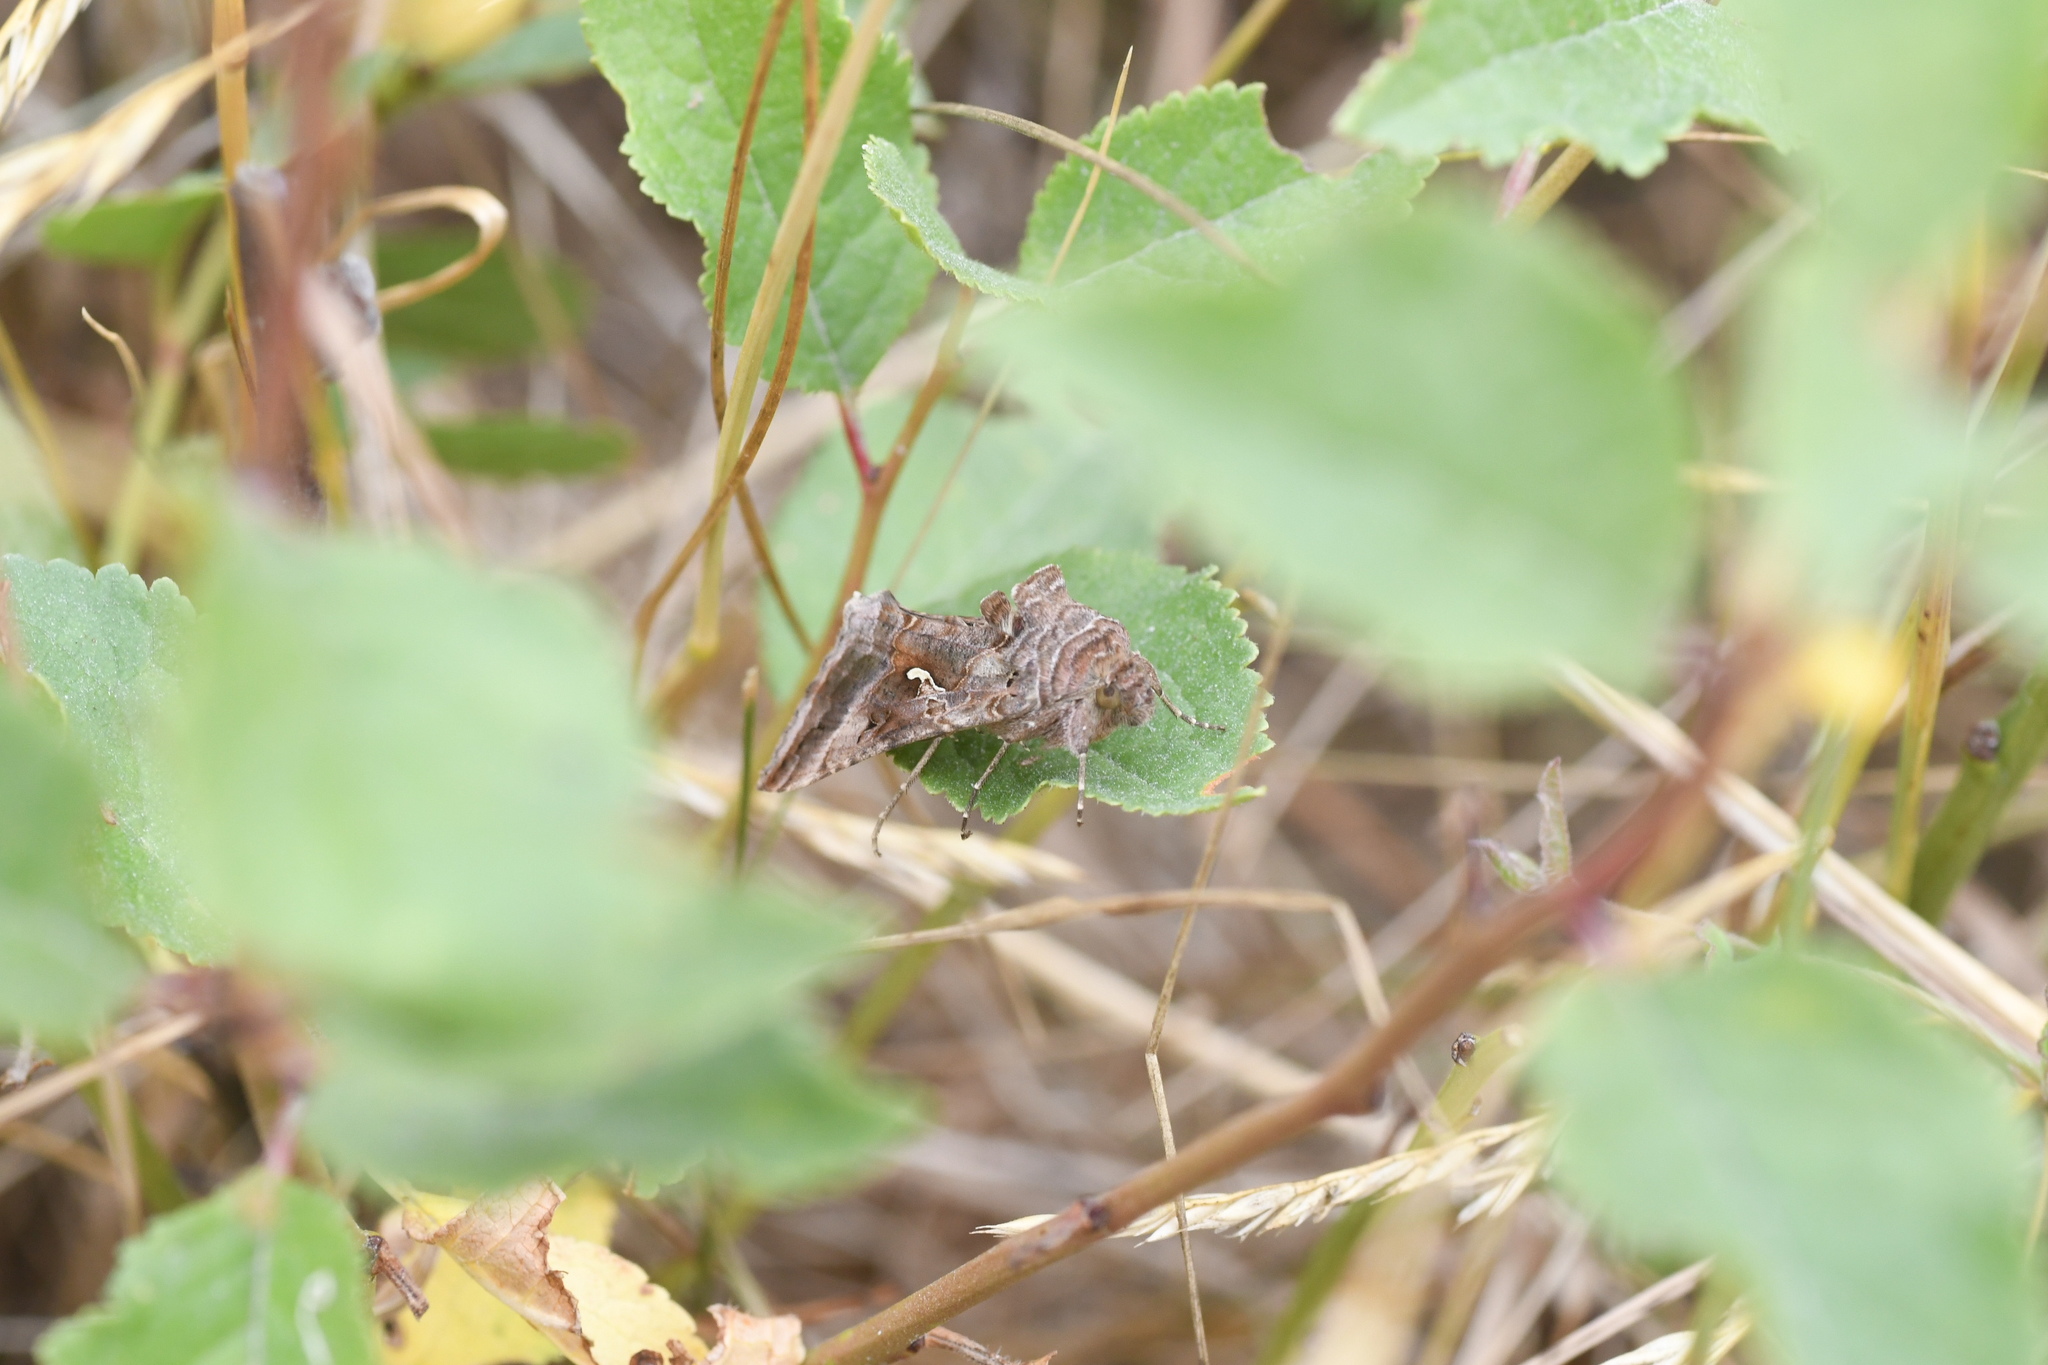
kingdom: Animalia
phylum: Arthropoda
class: Insecta
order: Lepidoptera
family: Noctuidae
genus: Autographa
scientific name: Autographa gamma
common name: Silver y
